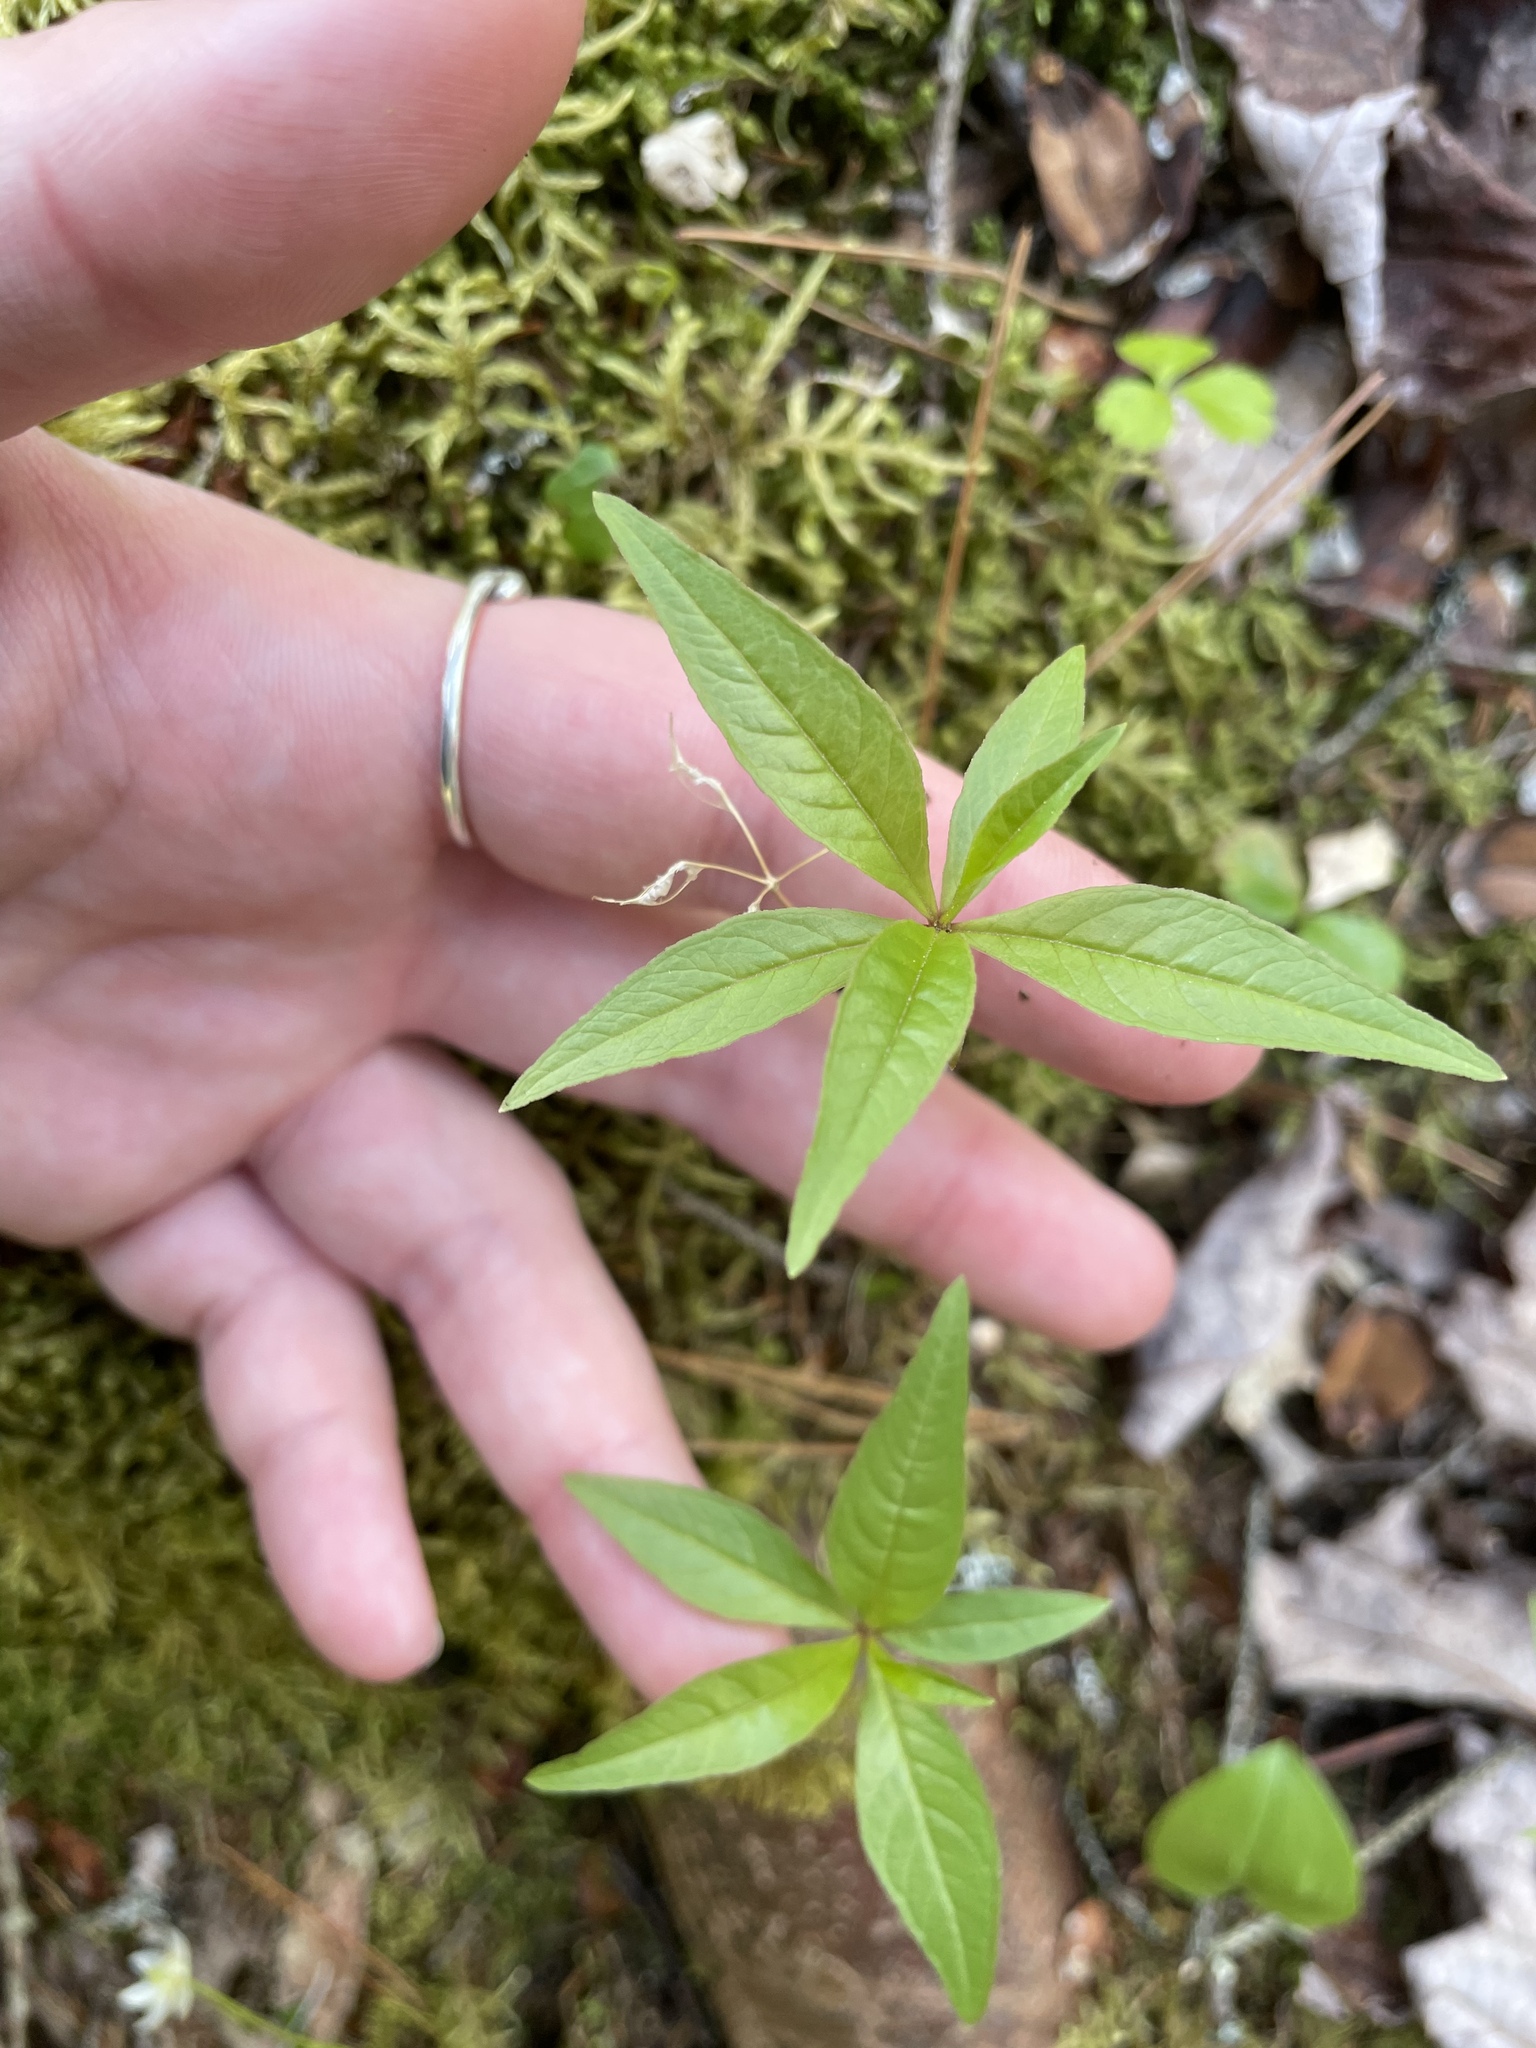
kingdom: Plantae
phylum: Tracheophyta
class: Magnoliopsida
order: Ericales
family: Primulaceae
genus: Lysimachia
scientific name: Lysimachia borealis
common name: American starflower
